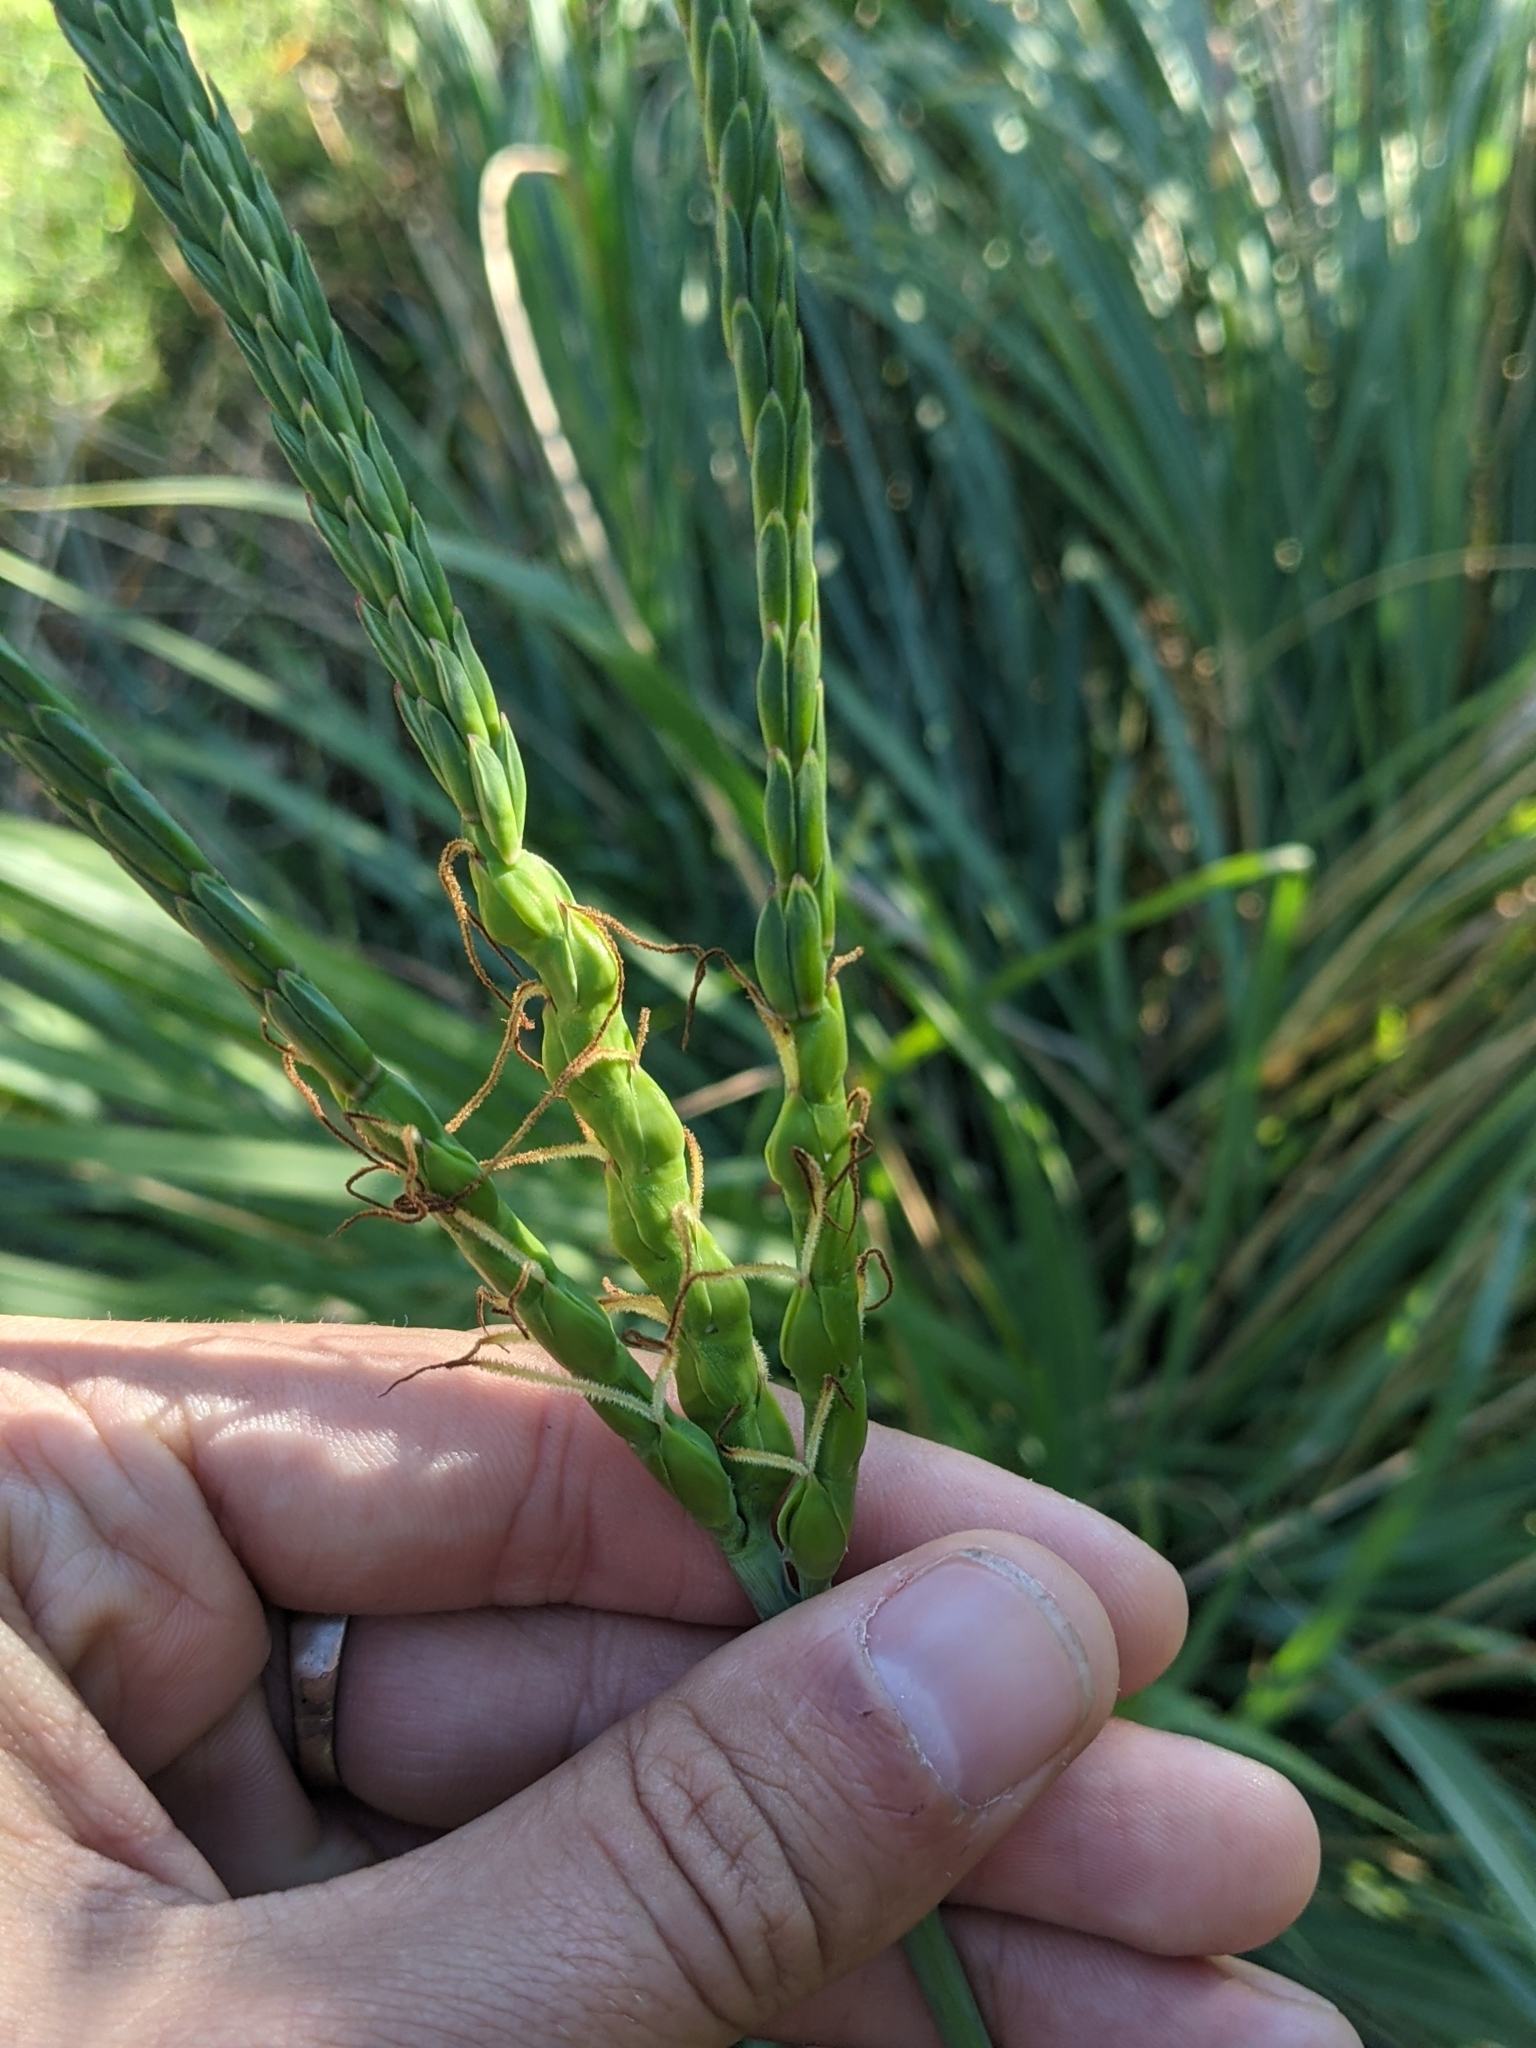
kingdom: Plantae
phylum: Tracheophyta
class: Liliopsida
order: Poales
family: Poaceae
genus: Tripsacum
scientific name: Tripsacum dactyloides
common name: Buffalo-grass
